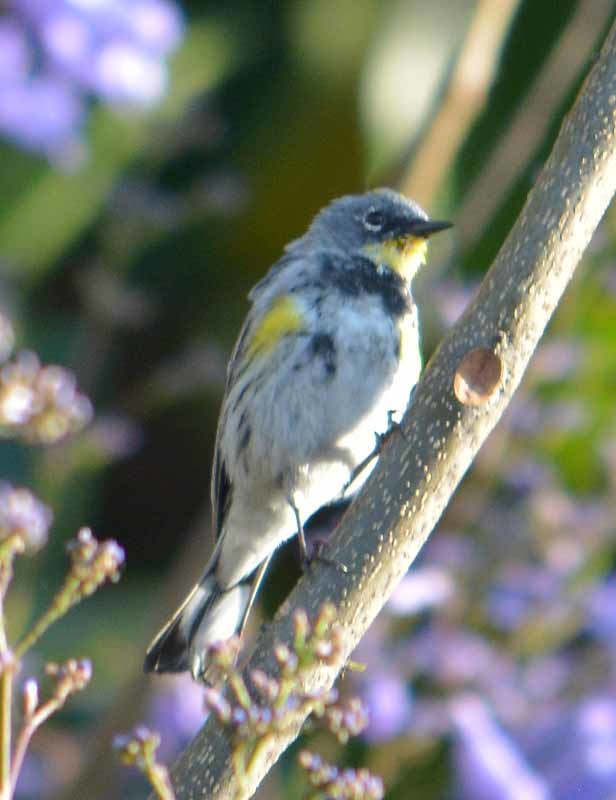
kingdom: Animalia
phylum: Chordata
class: Aves
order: Passeriformes
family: Parulidae
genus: Setophaga
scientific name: Setophaga coronata
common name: Myrtle warbler
